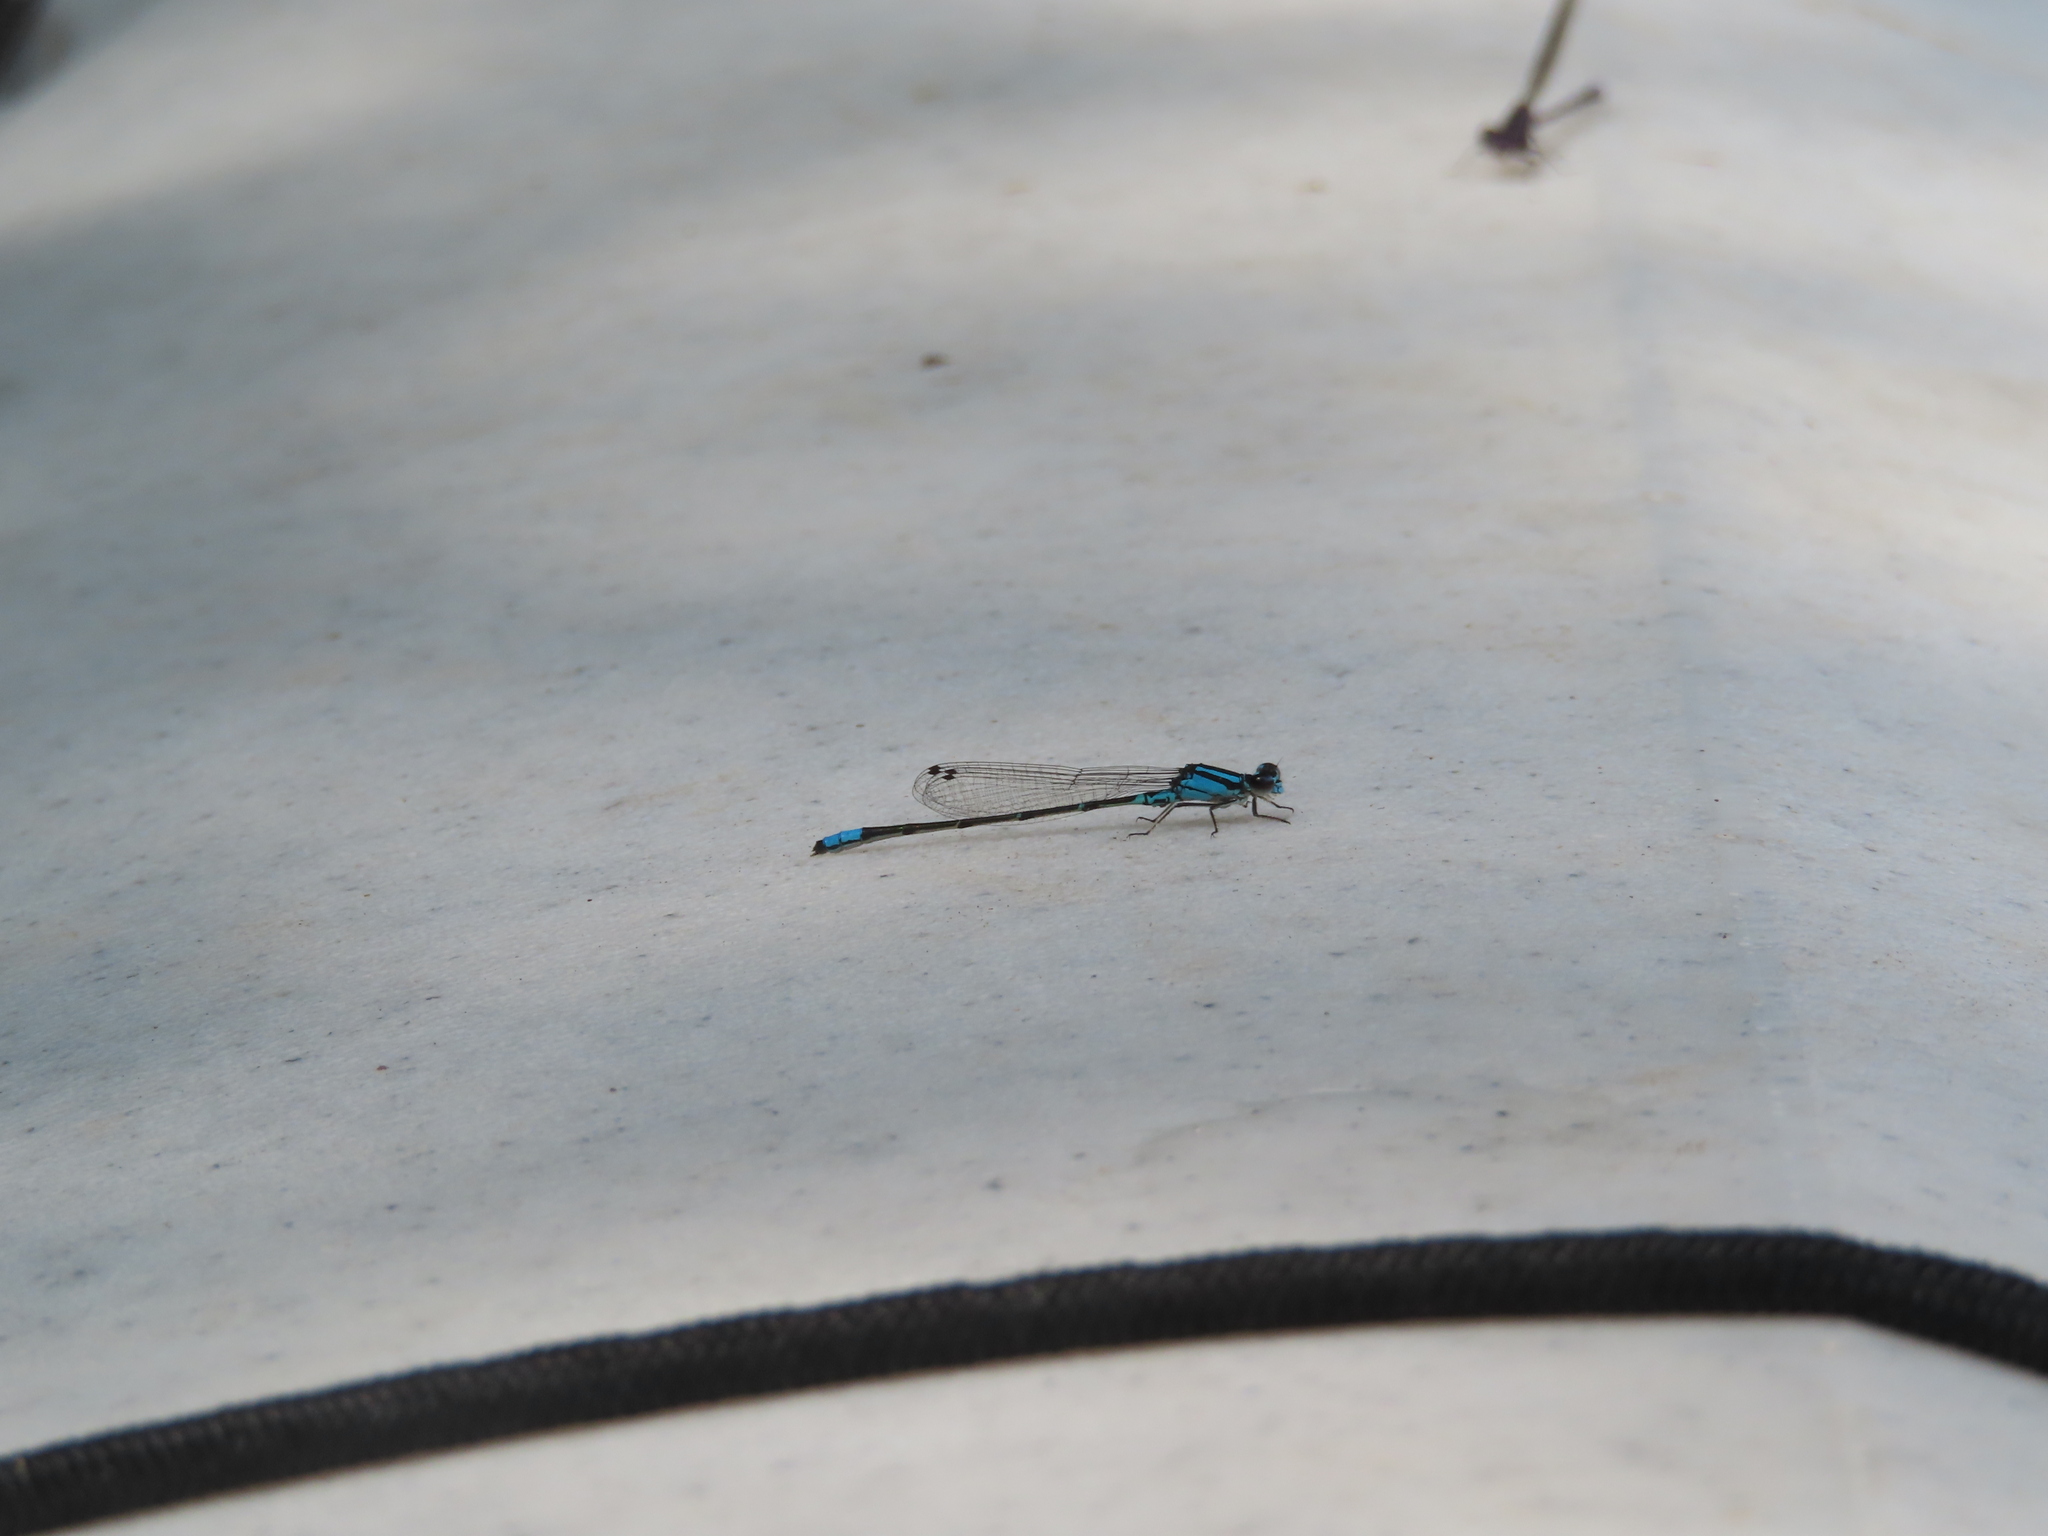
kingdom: Animalia
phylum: Arthropoda
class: Insecta
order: Odonata
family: Coenagrionidae
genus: Enallagma
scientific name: Enallagma geminatum
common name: Skimming bluet
